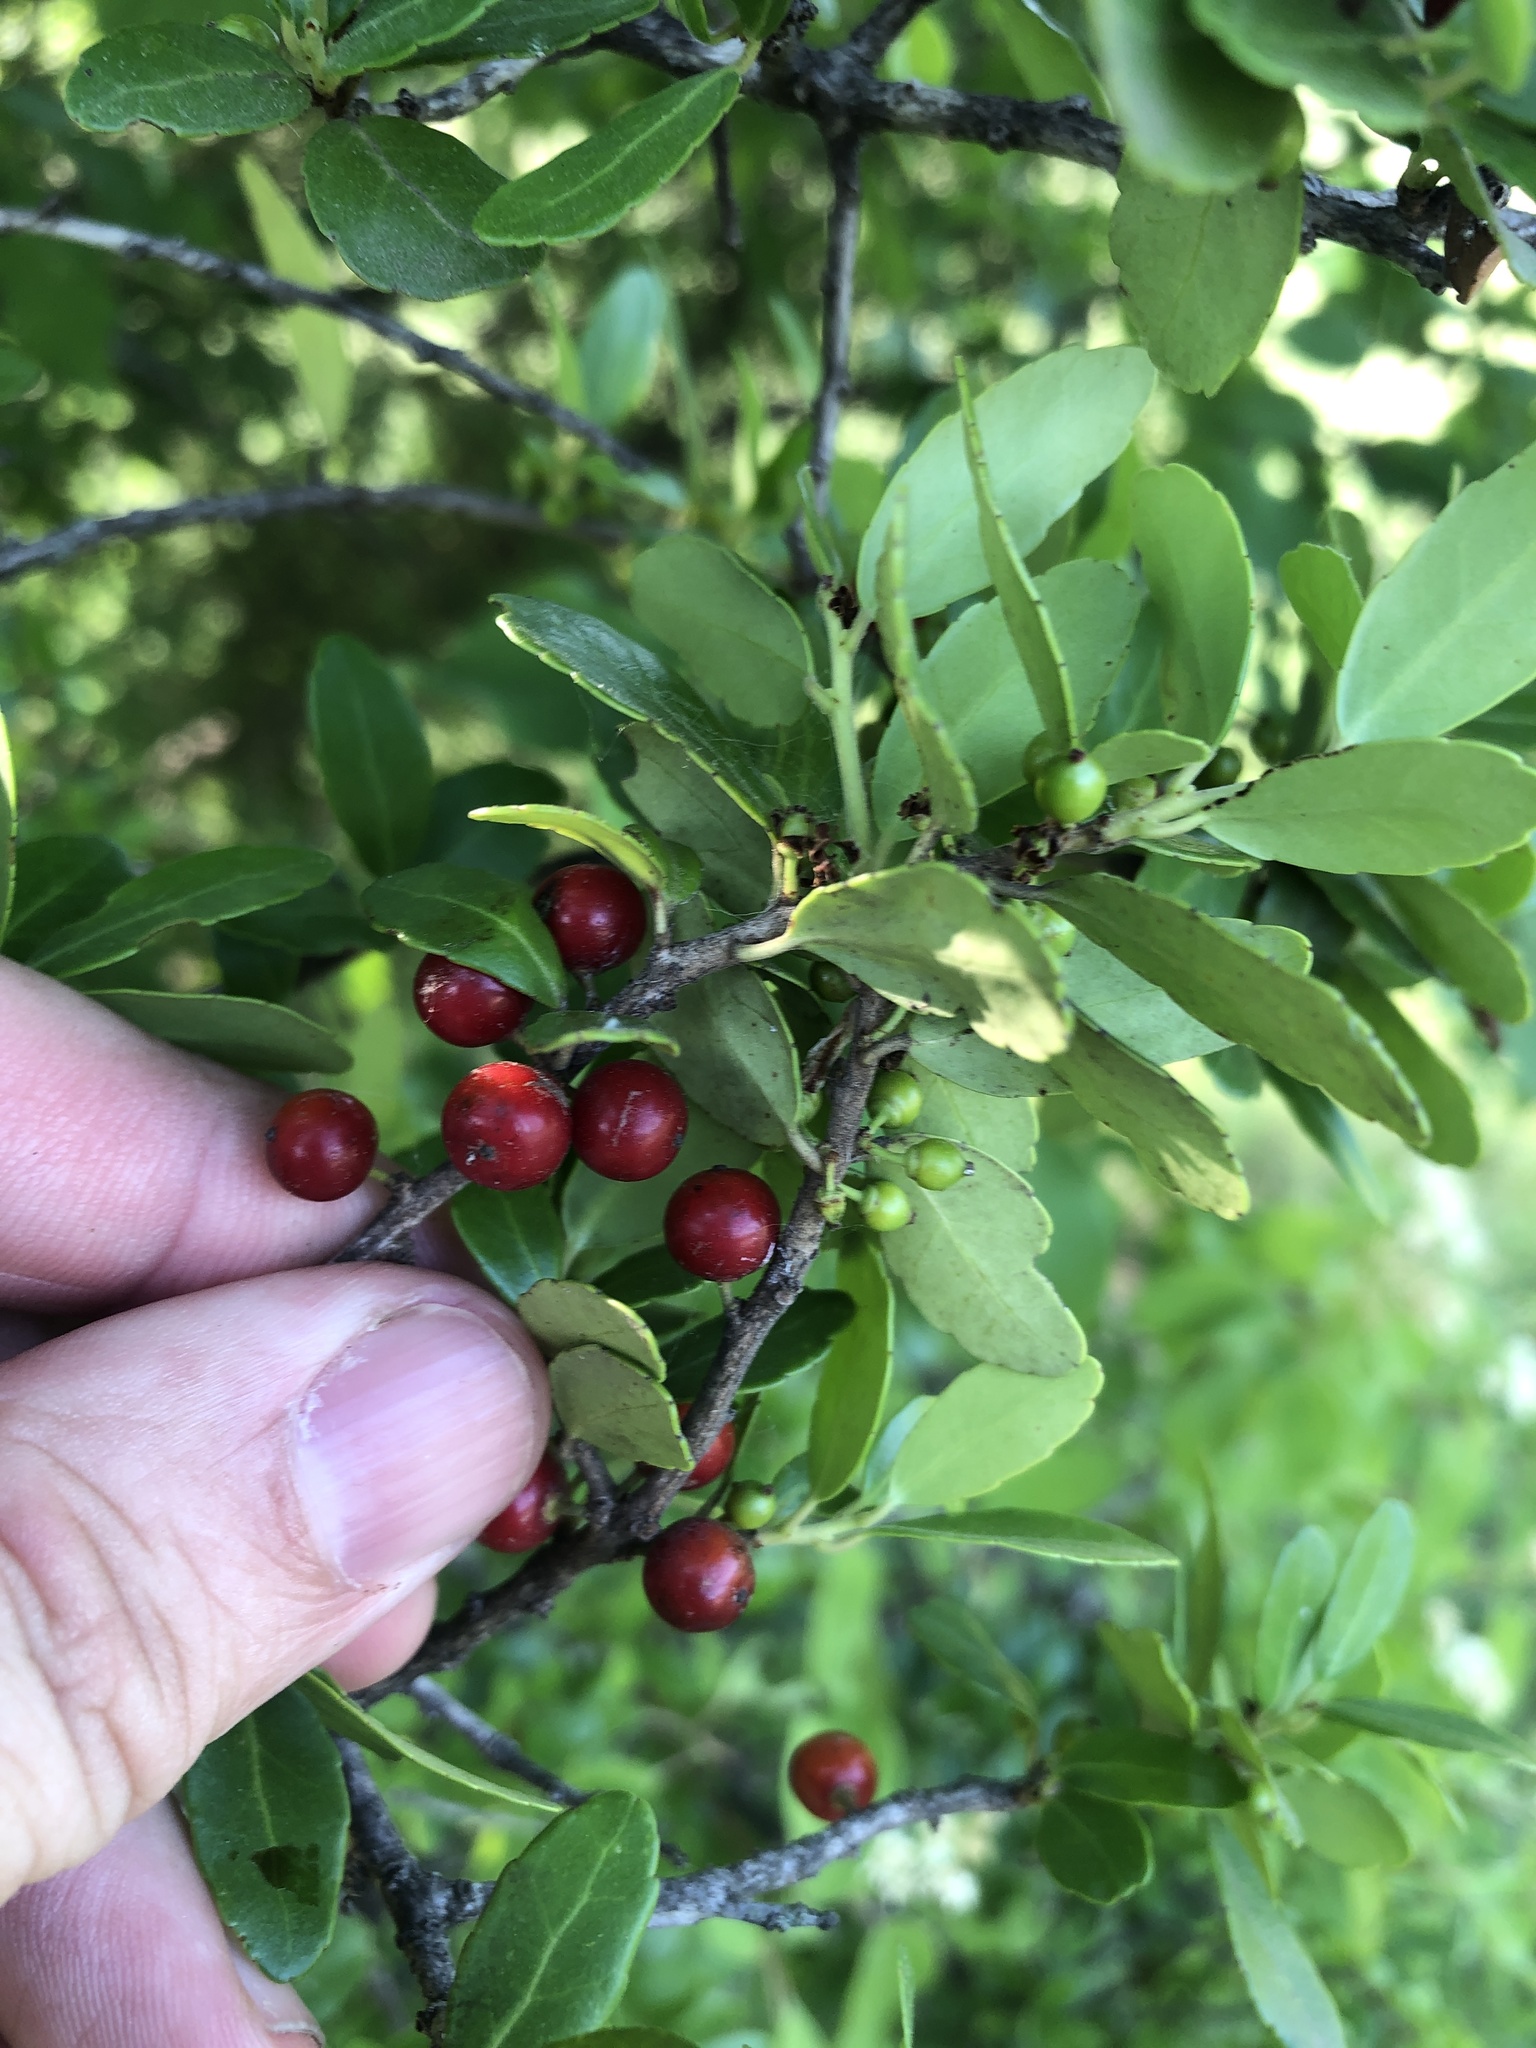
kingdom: Plantae
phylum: Tracheophyta
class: Magnoliopsida
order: Aquifoliales
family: Aquifoliaceae
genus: Ilex
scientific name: Ilex vomitoria
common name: Yaupon holly
